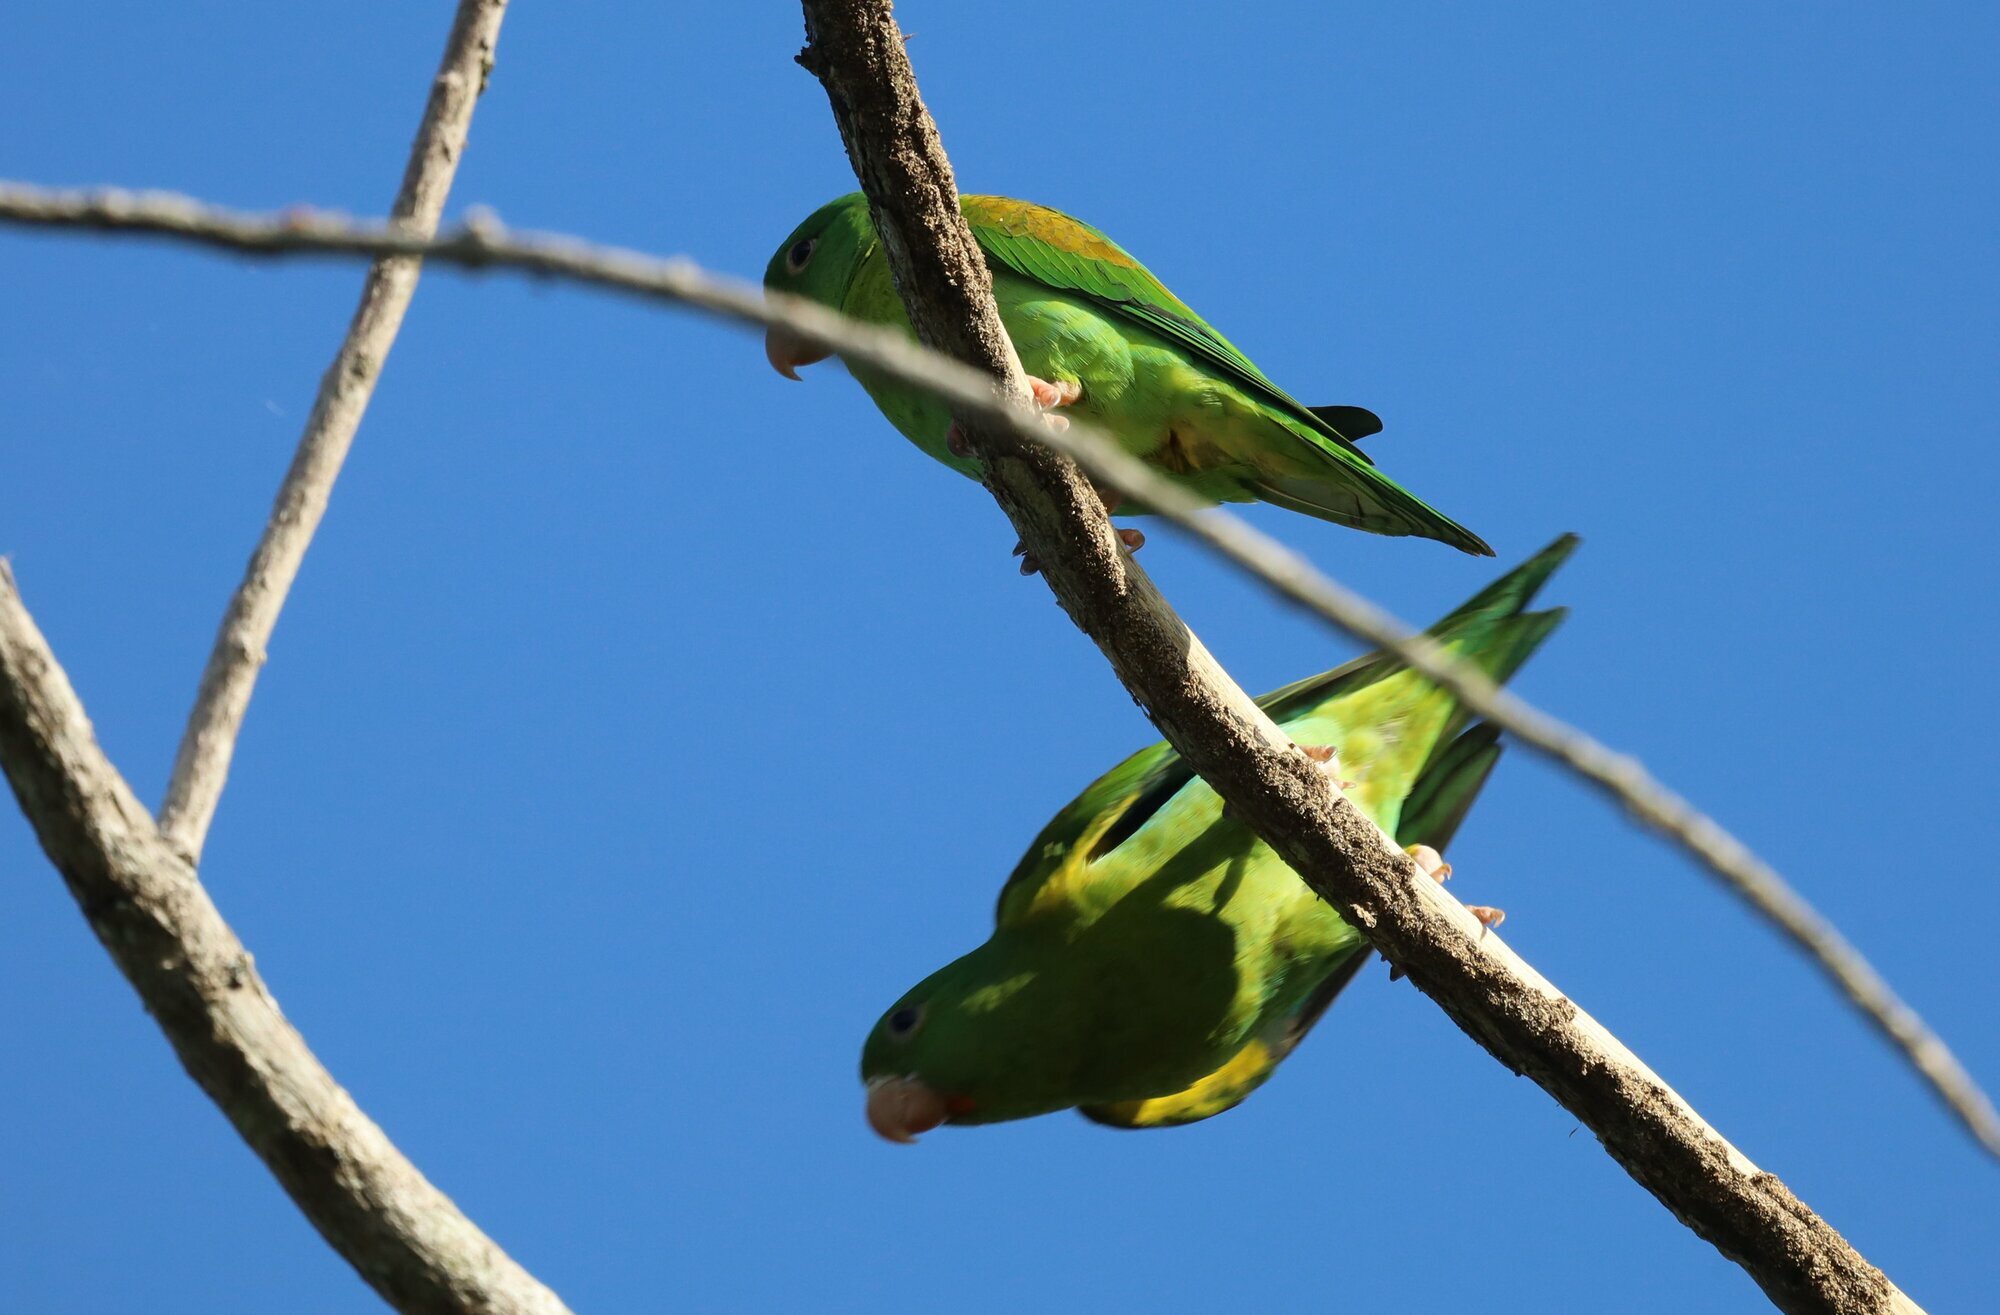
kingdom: Animalia
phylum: Chordata
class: Aves
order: Psittaciformes
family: Psittacidae
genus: Brotogeris
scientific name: Brotogeris jugularis
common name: Orange-chinned parakeet
